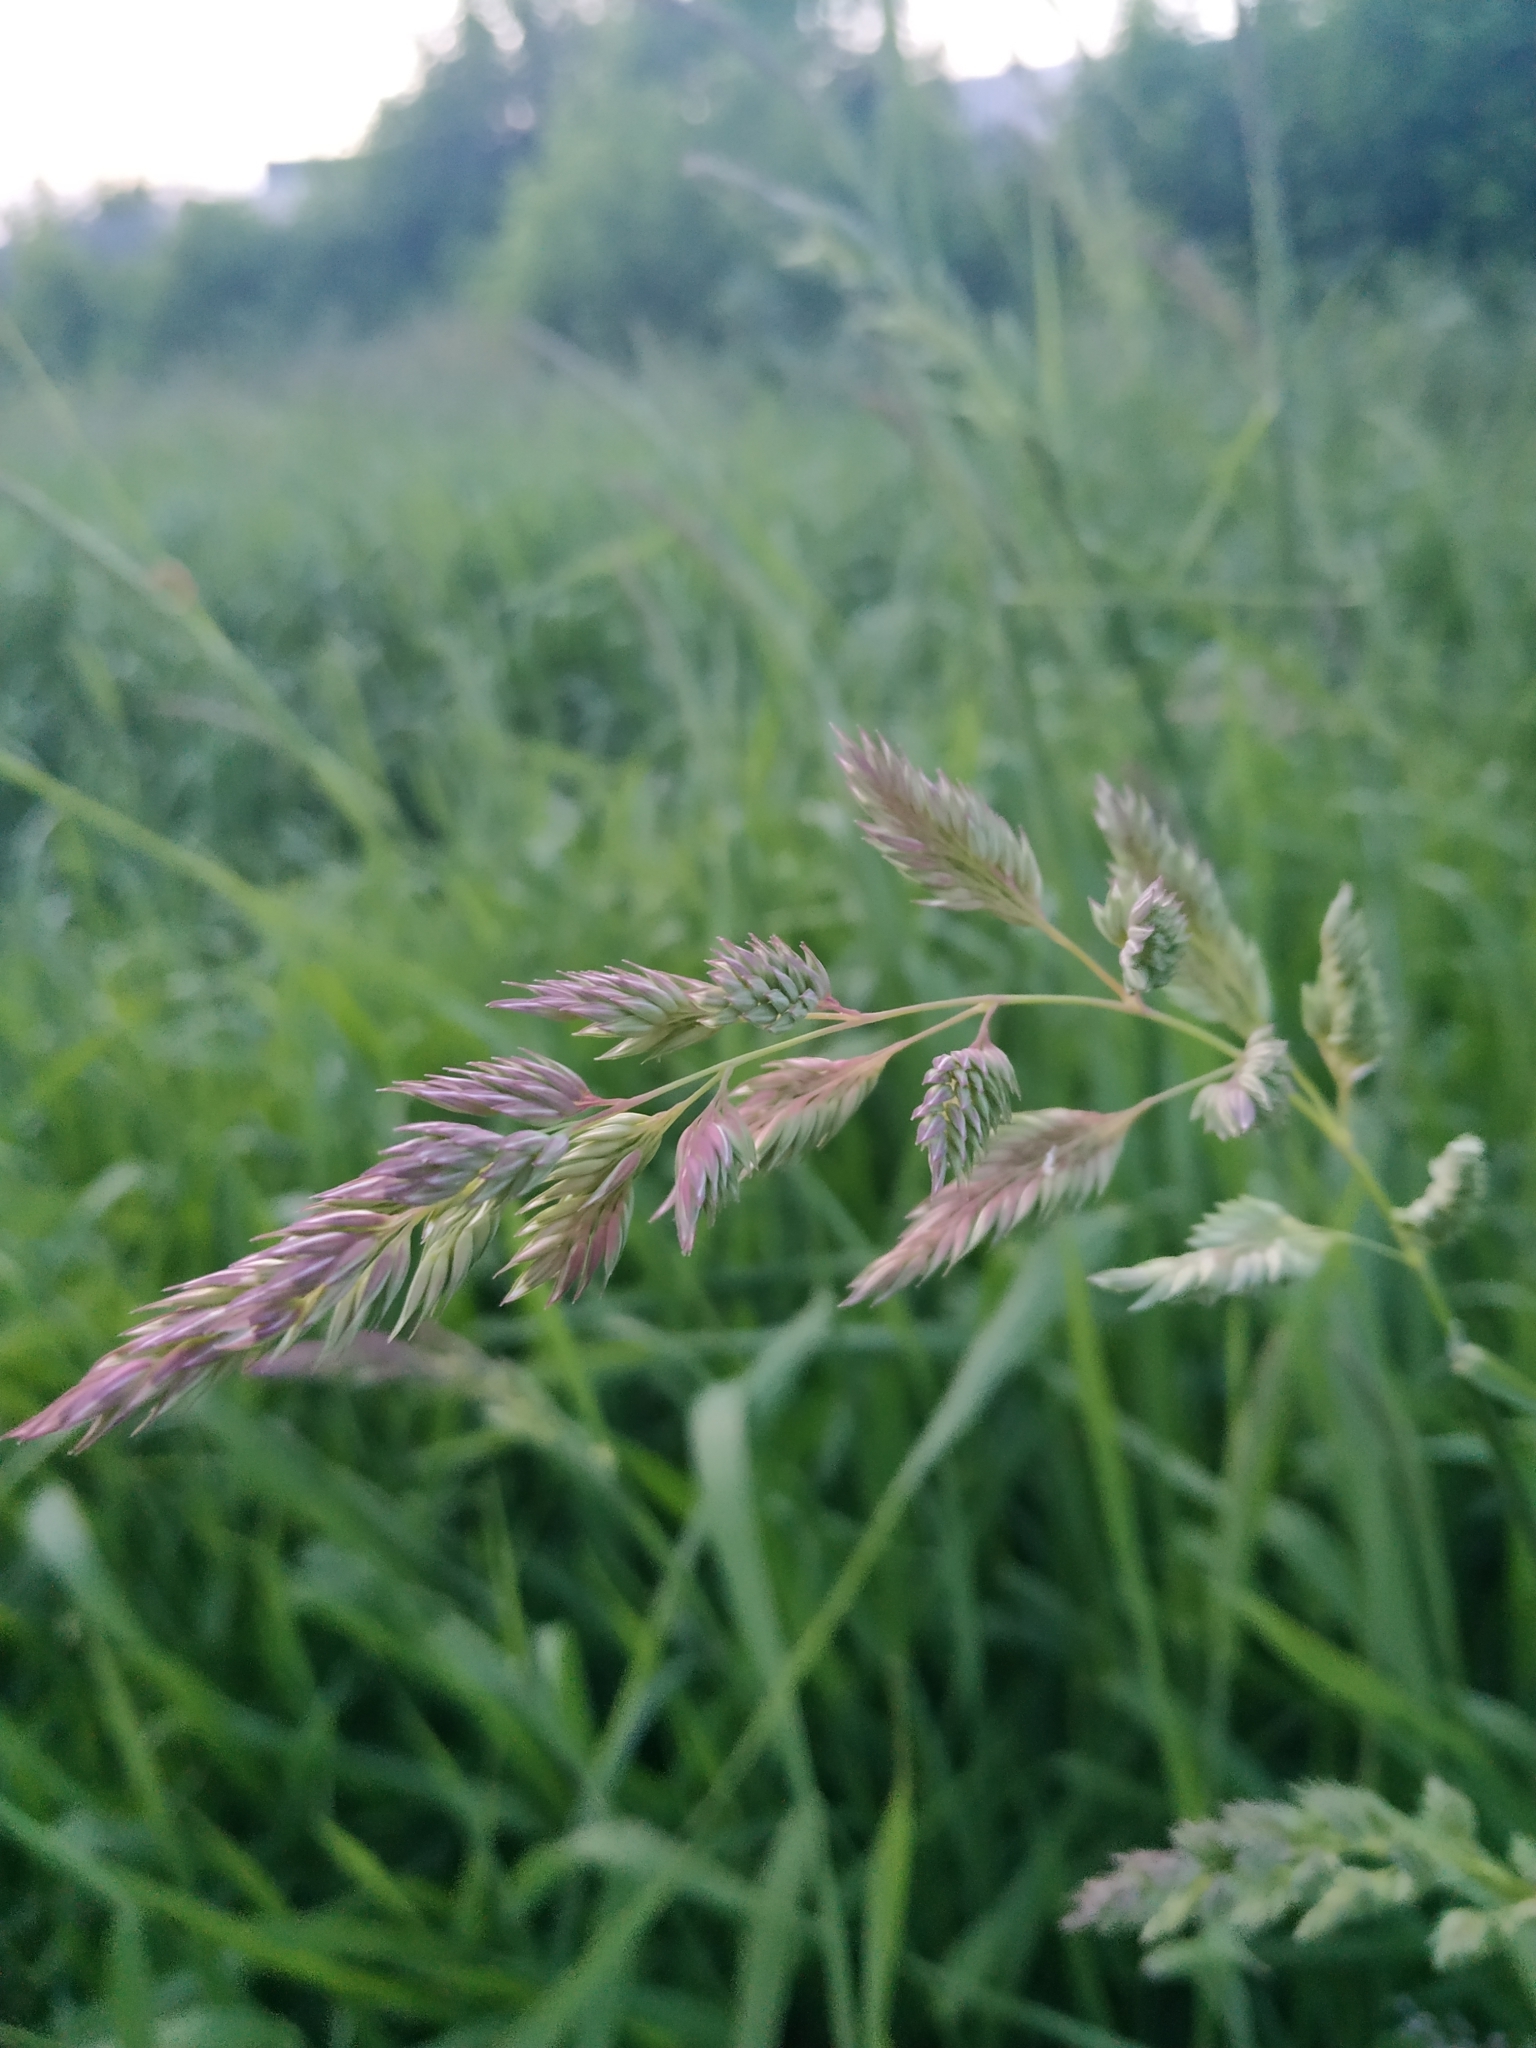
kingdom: Plantae
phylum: Tracheophyta
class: Liliopsida
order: Poales
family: Poaceae
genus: Phalaris
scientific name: Phalaris arundinacea
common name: Reed canary-grass
